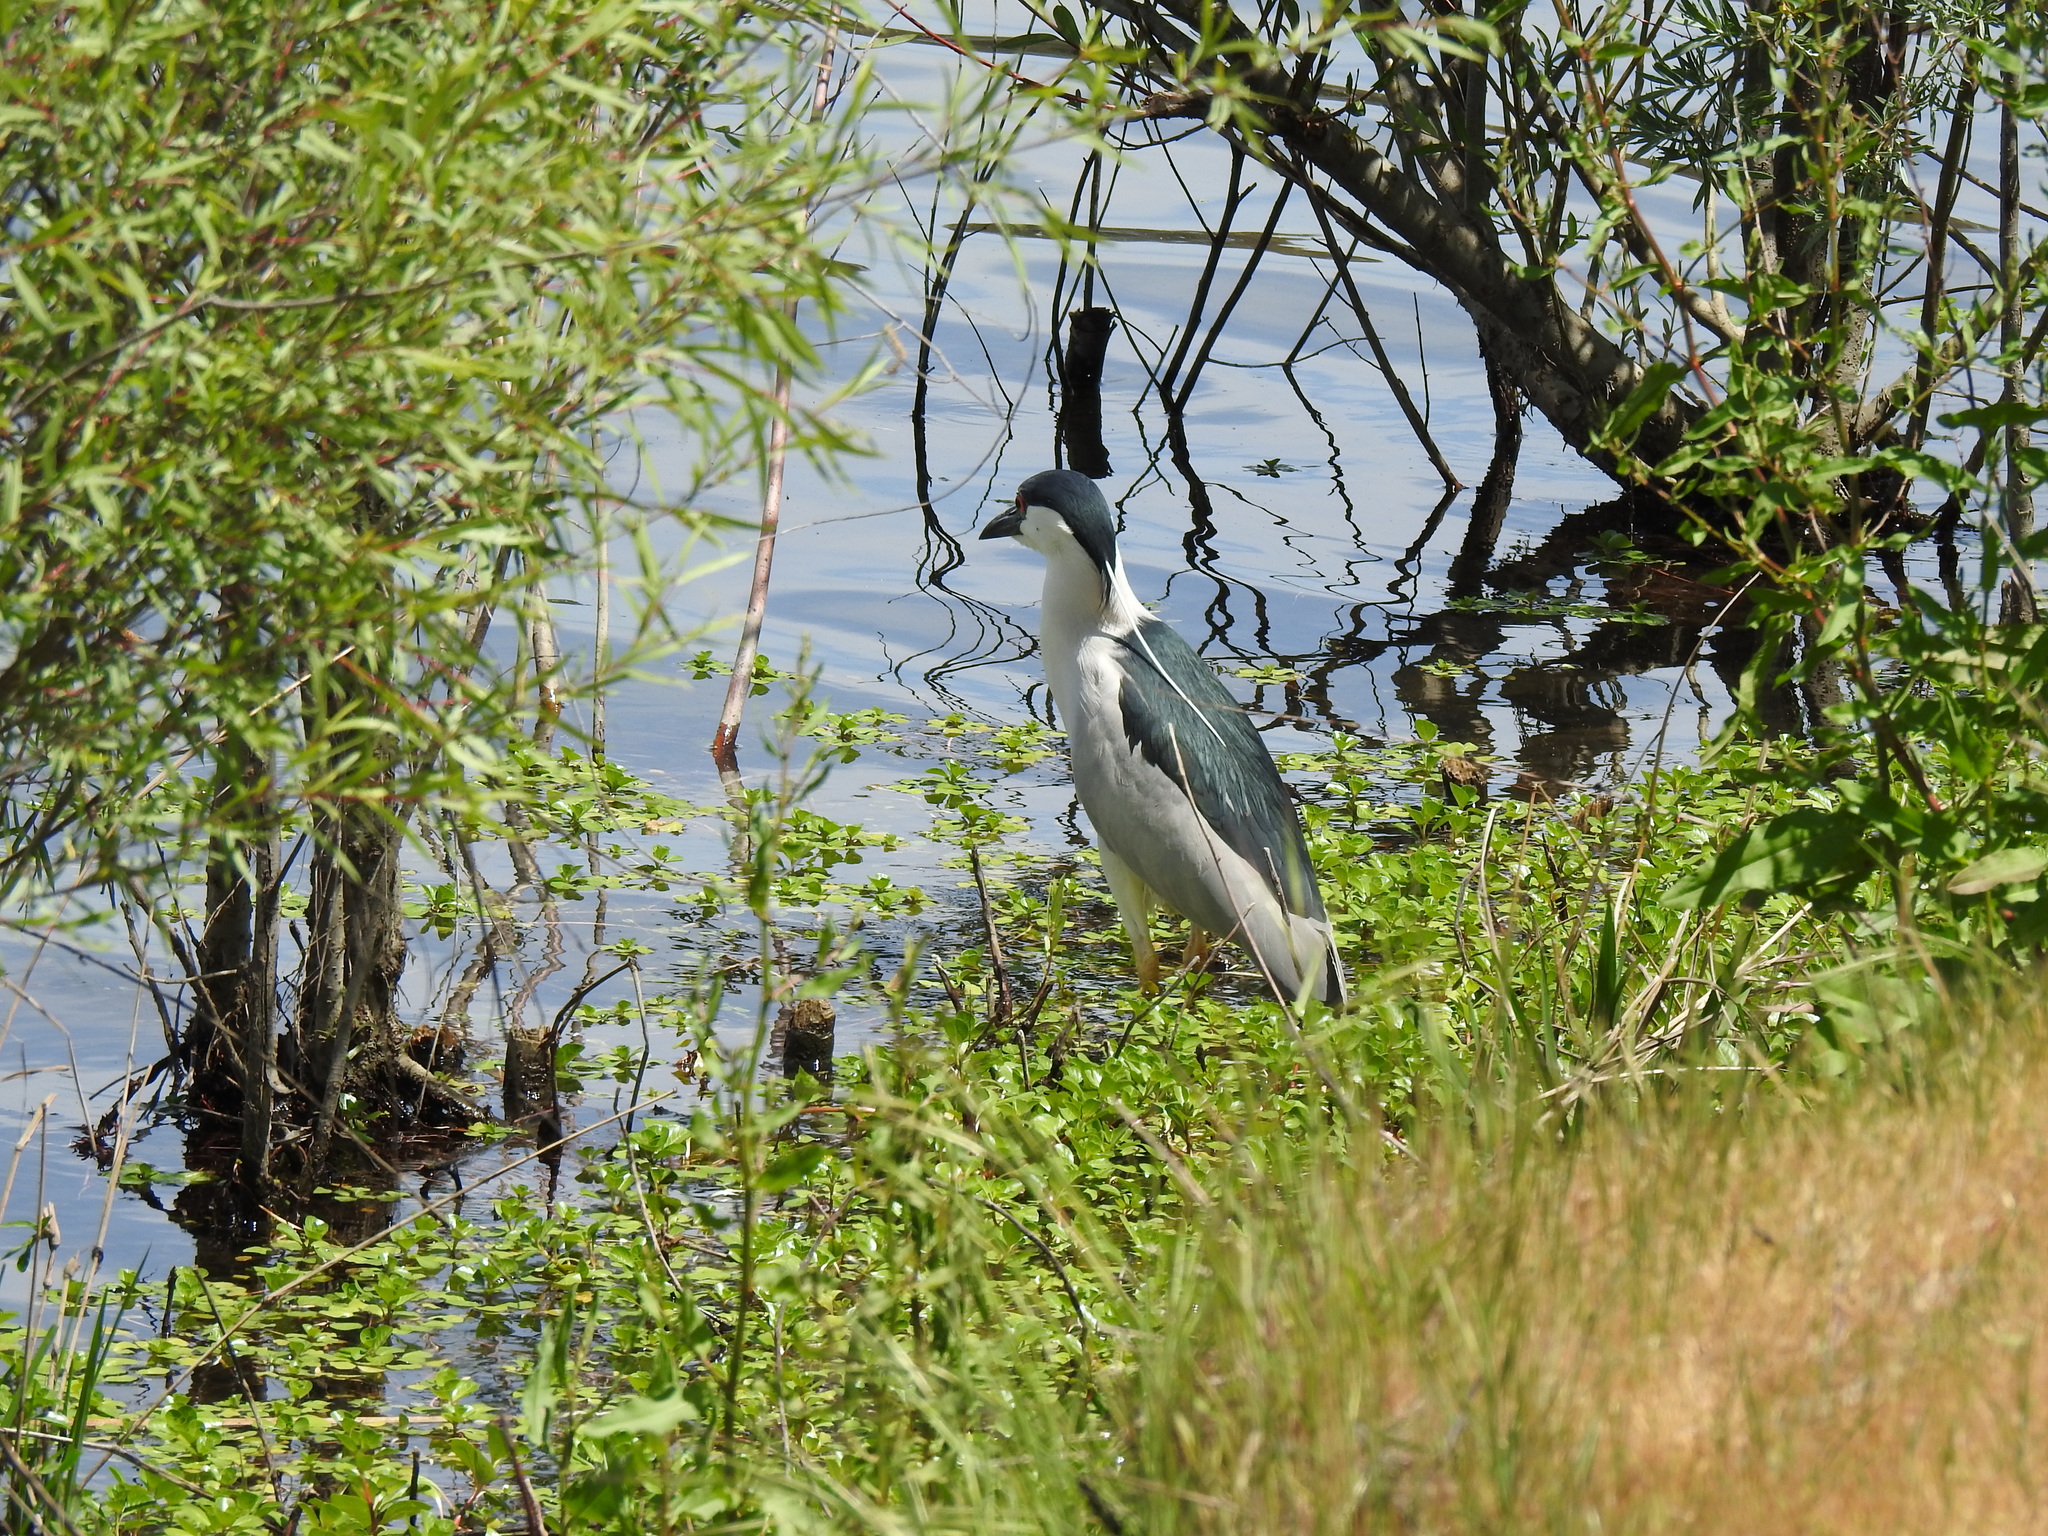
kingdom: Animalia
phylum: Chordata
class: Aves
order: Pelecaniformes
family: Ardeidae
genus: Nycticorax
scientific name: Nycticorax nycticorax
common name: Black-crowned night heron
